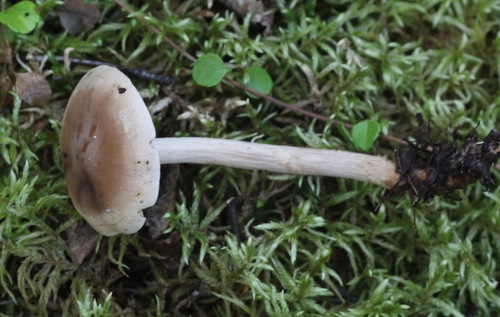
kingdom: Fungi
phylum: Basidiomycota
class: Agaricomycetes
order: Agaricales
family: Hymenogastraceae
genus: Hebeloma
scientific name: Hebeloma mesophaeum
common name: Veiled poisonpie
